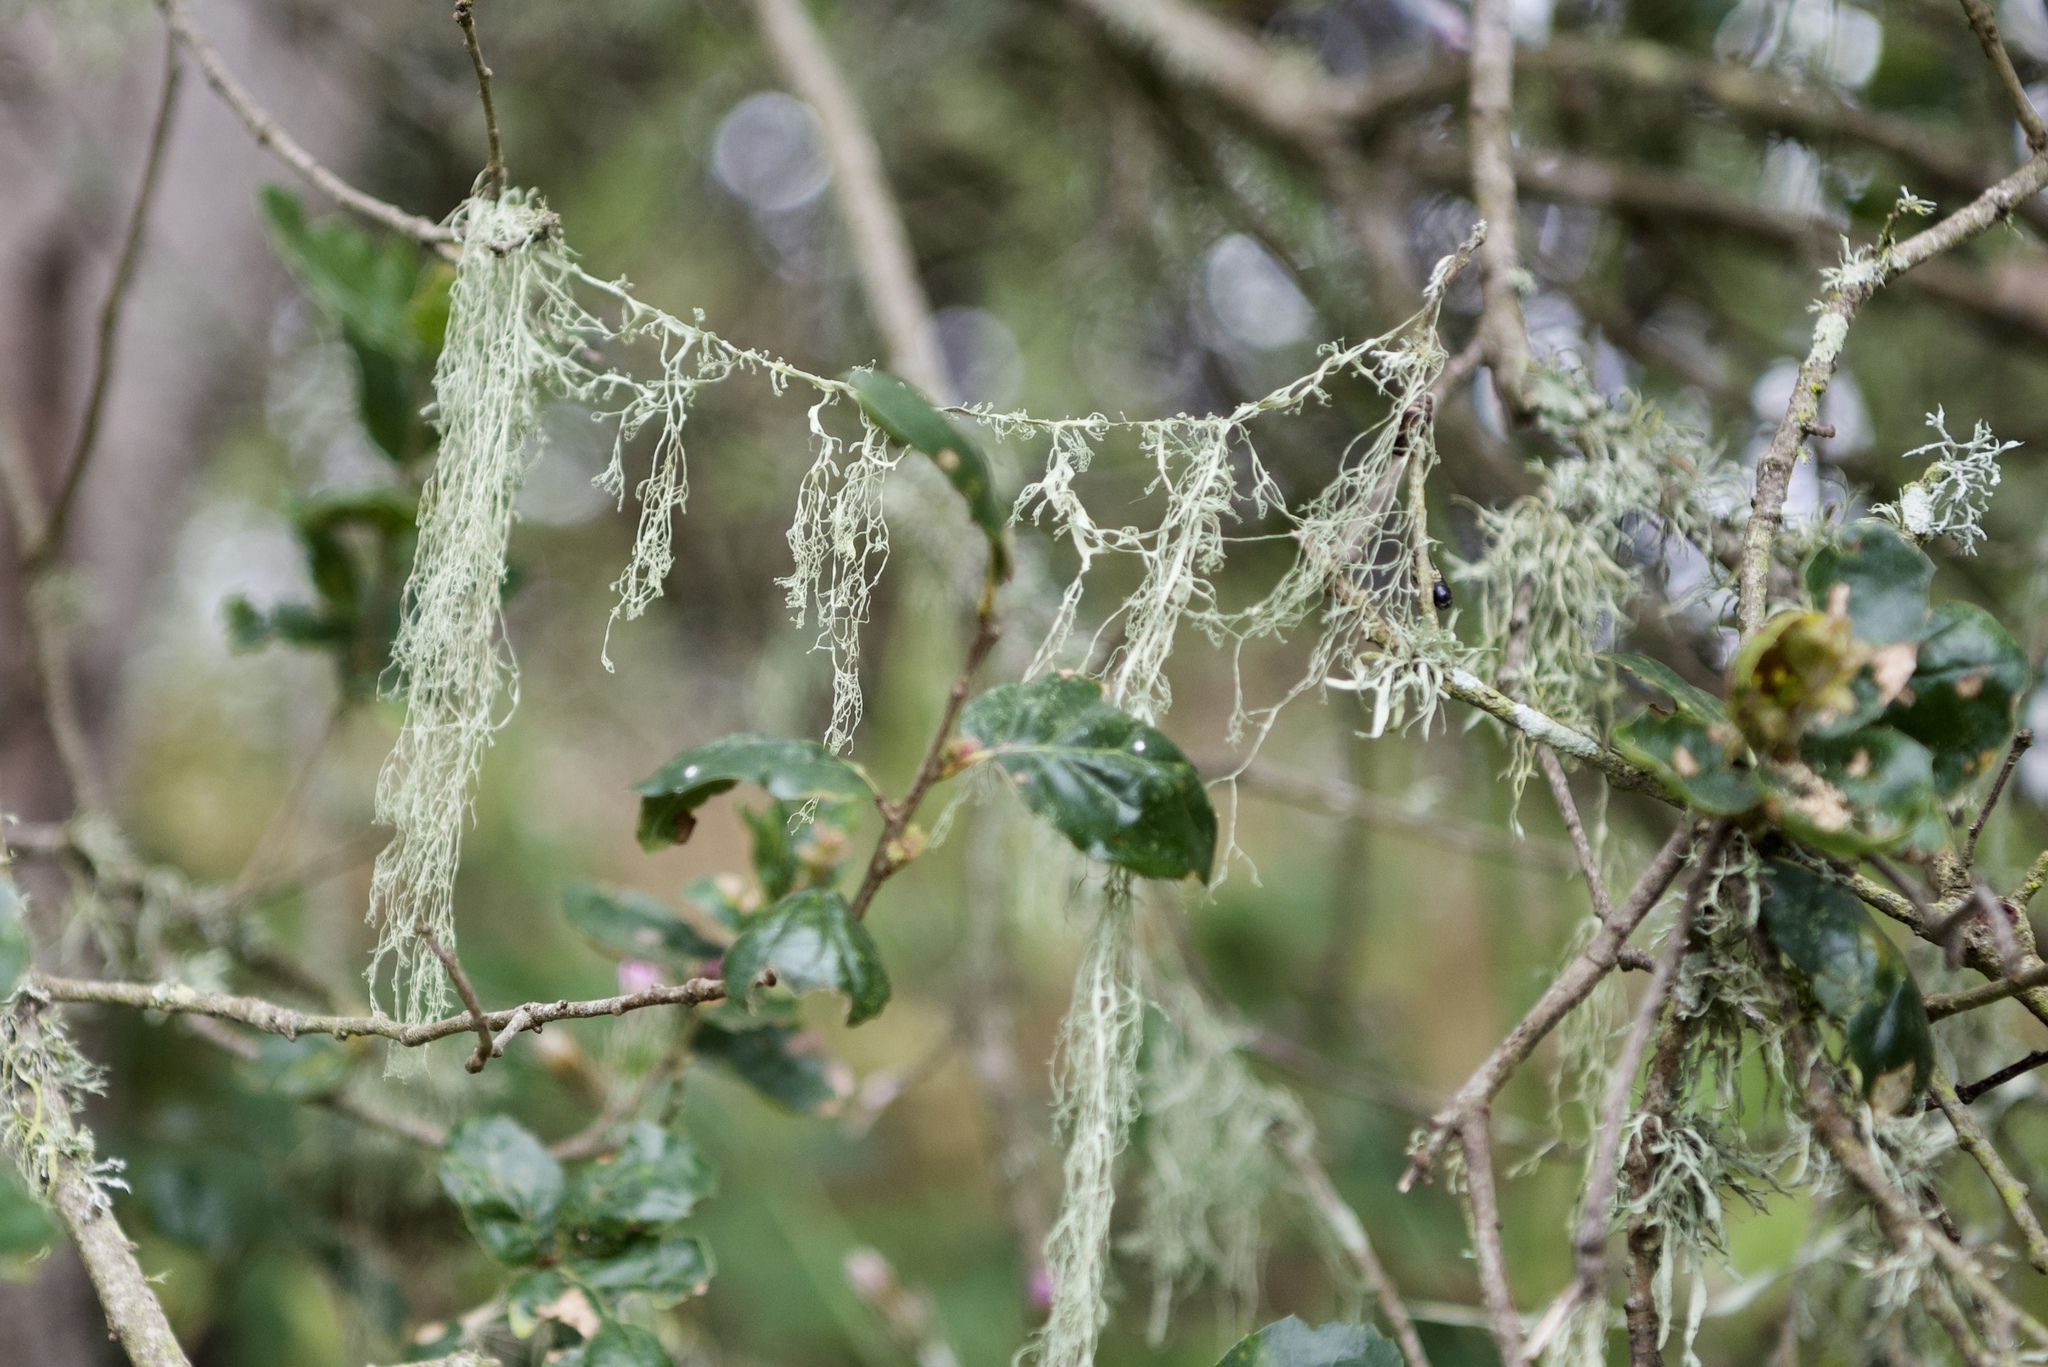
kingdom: Fungi
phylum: Ascomycota
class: Lecanoromycetes
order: Lecanorales
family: Ramalinaceae
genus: Ramalina
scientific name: Ramalina menziesii
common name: Lace lichen
